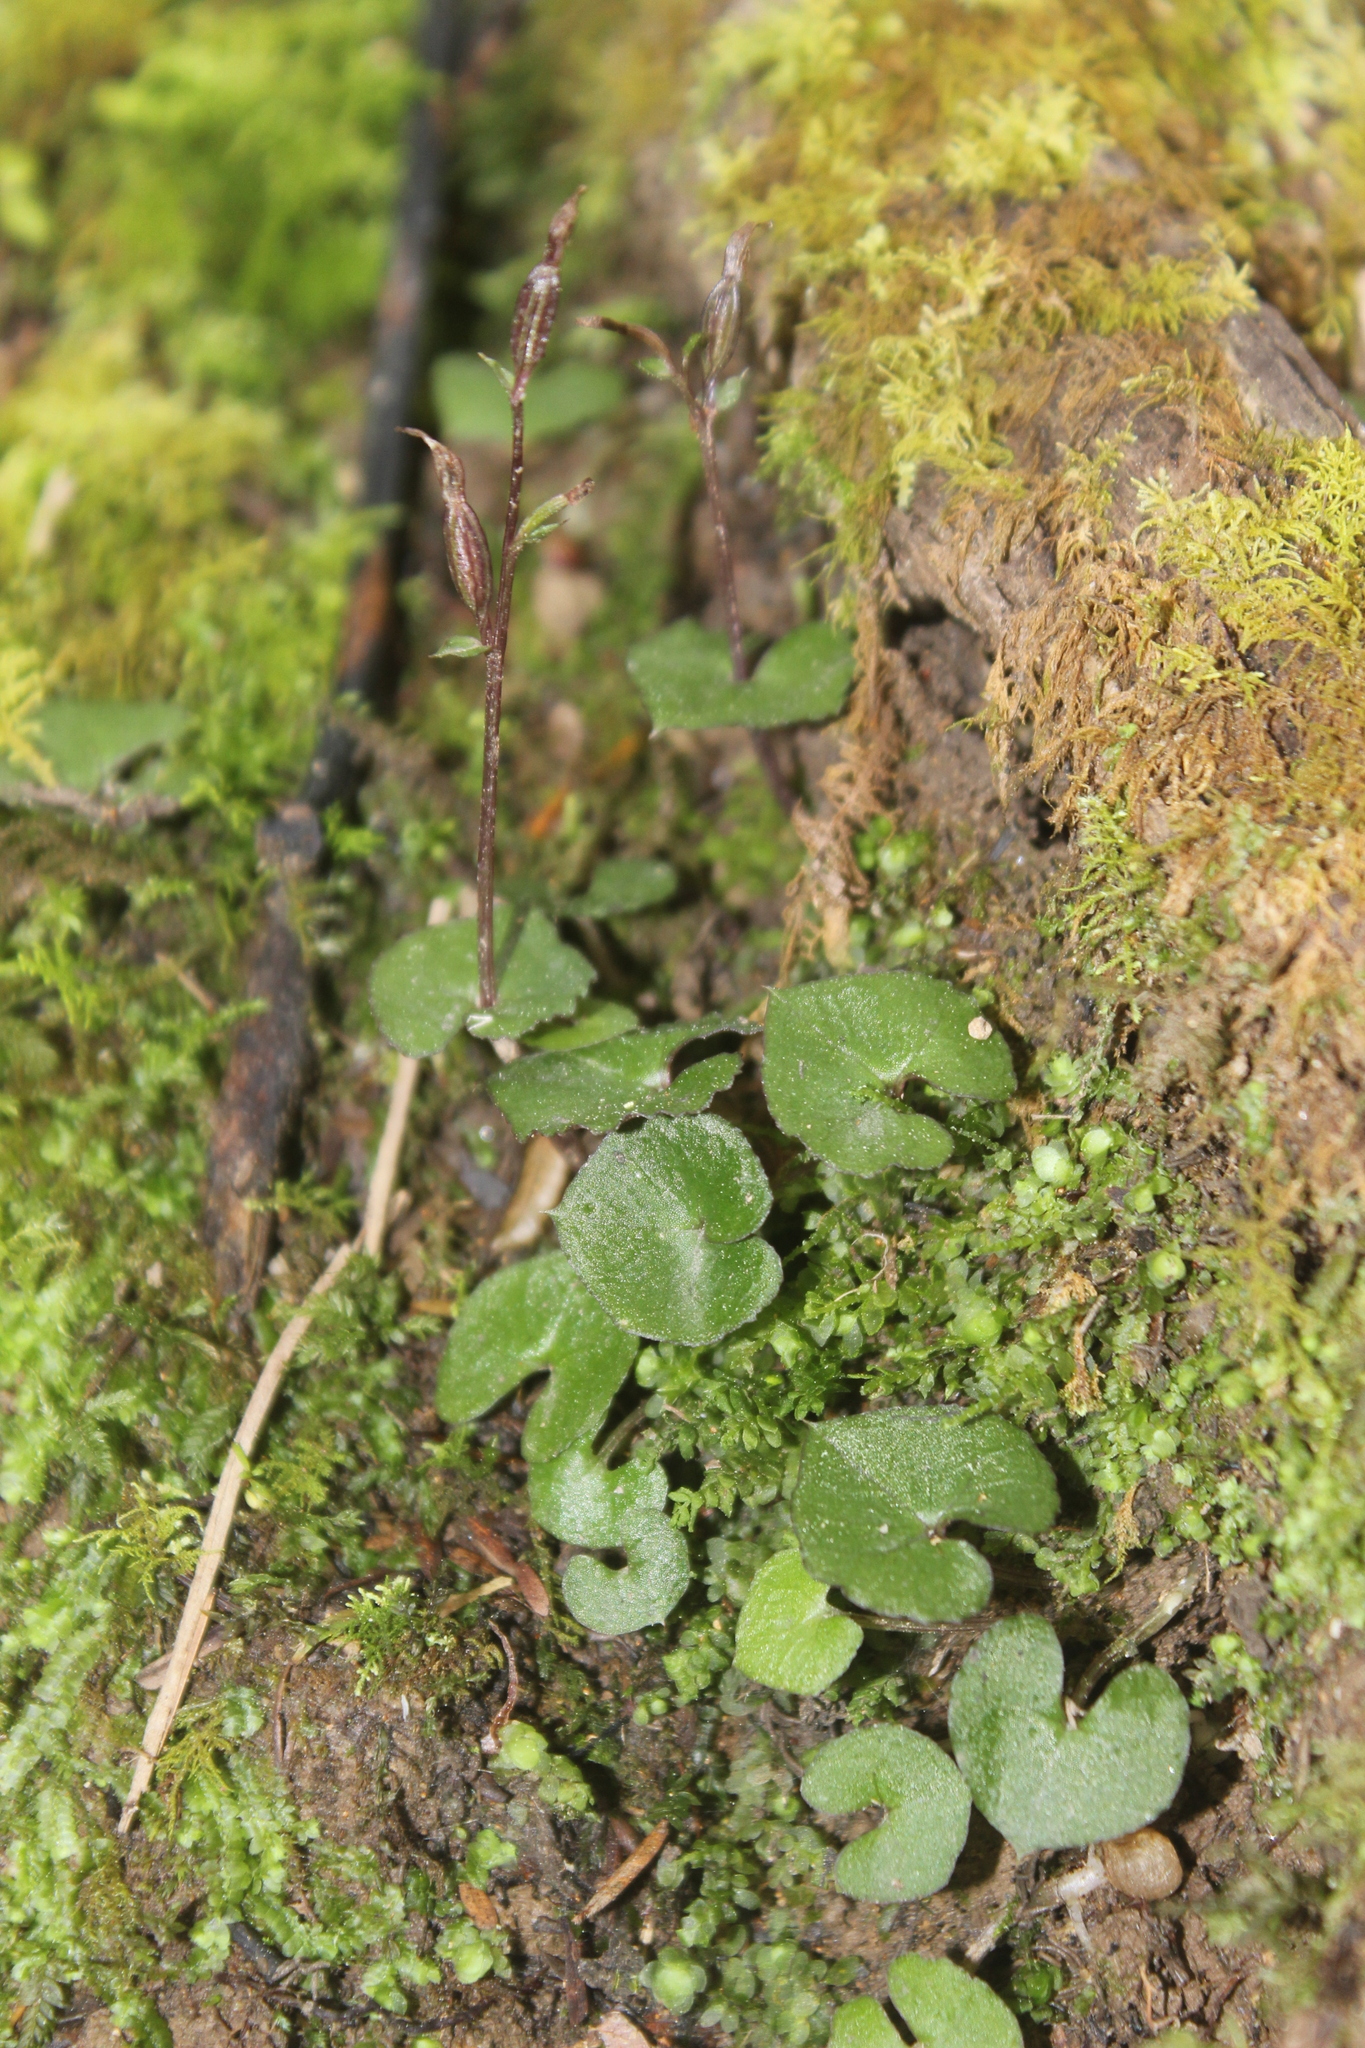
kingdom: Plantae
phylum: Tracheophyta
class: Liliopsida
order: Asparagales
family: Orchidaceae
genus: Acianthus
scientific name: Acianthus sinclairii
